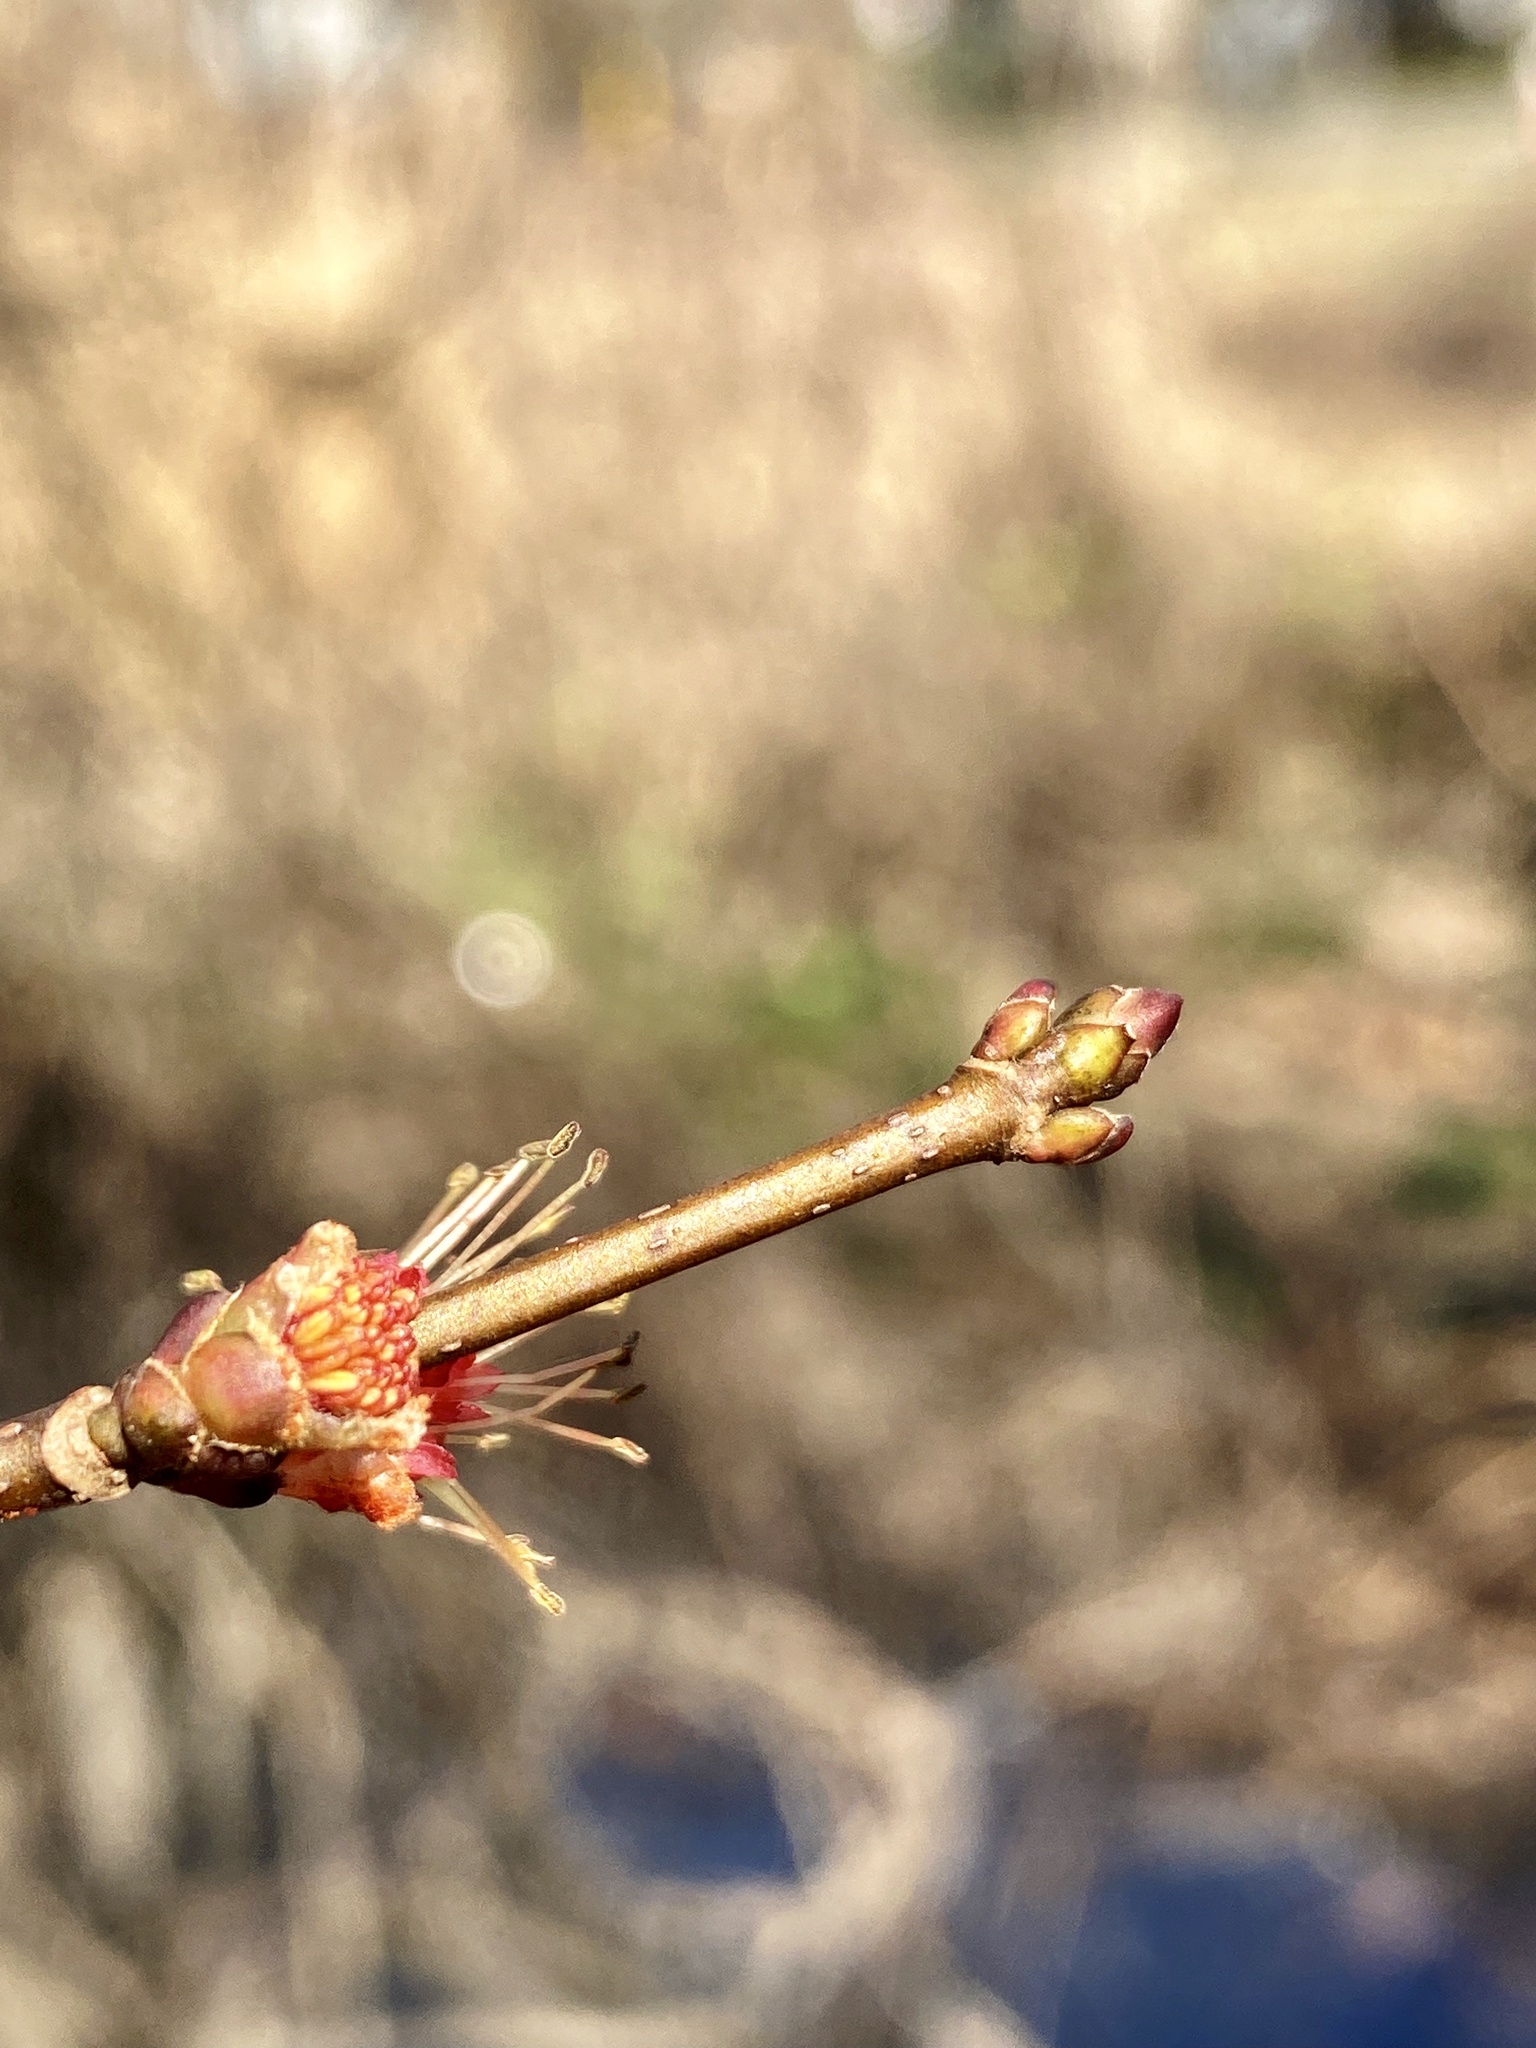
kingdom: Plantae
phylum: Tracheophyta
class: Magnoliopsida
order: Sapindales
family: Sapindaceae
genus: Acer
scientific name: Acer rubrum
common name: Red maple
